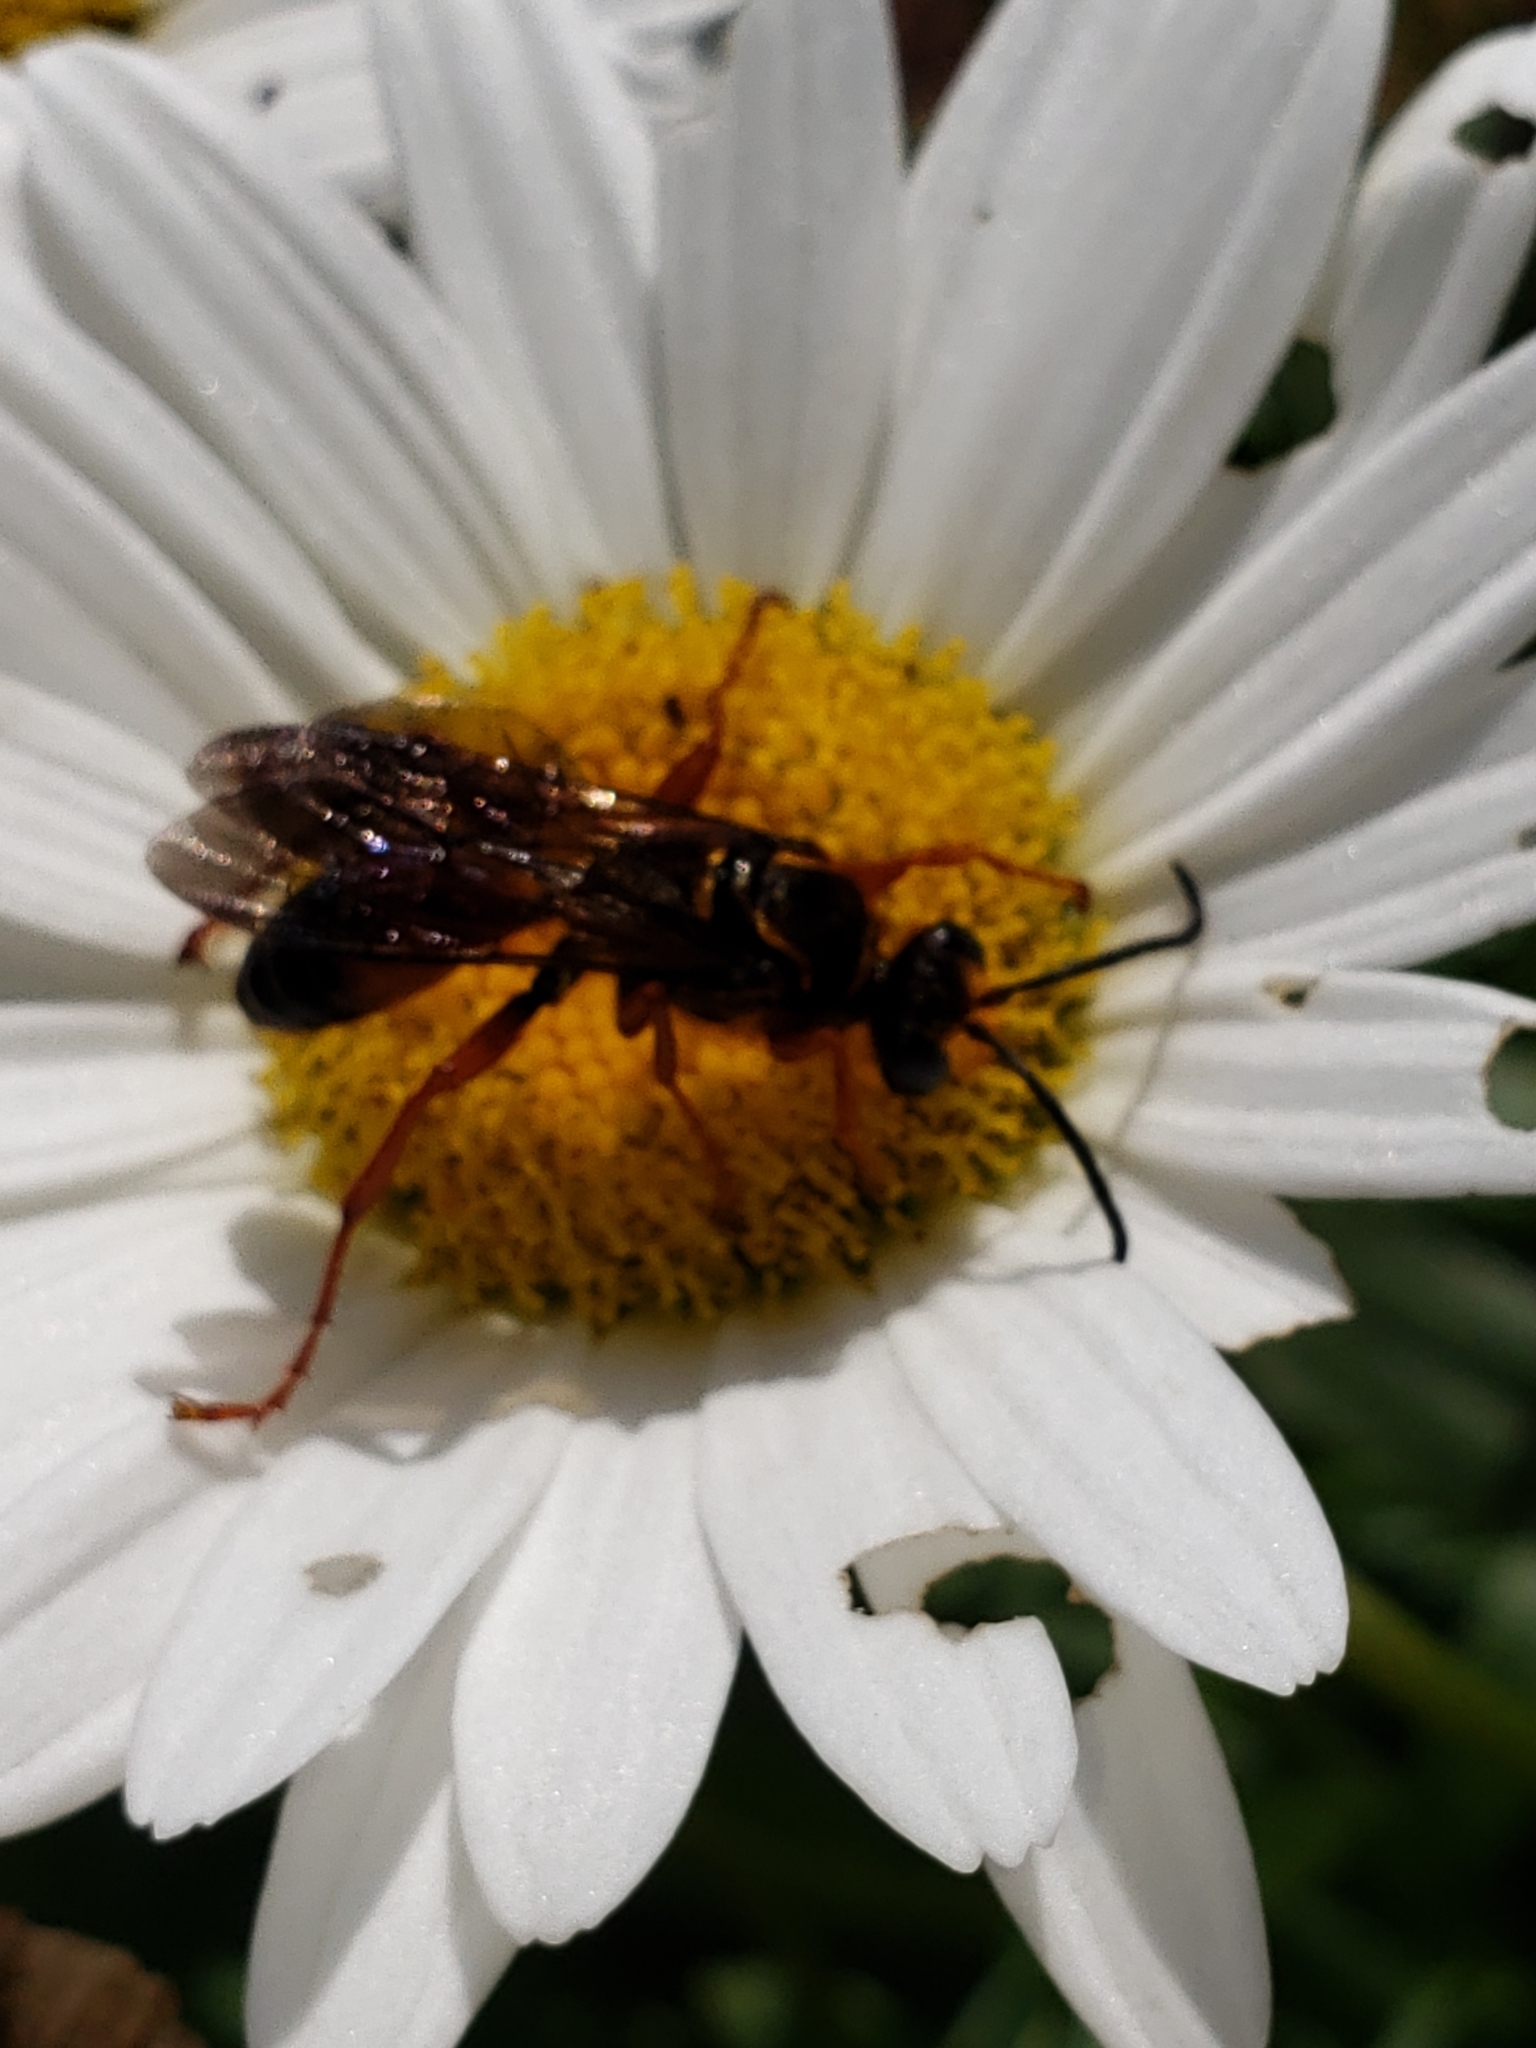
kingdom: Animalia
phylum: Arthropoda
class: Insecta
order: Hymenoptera
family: Sphecidae
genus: Sphex
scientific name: Sphex ichneumoneus
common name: Great golden digger wasp
